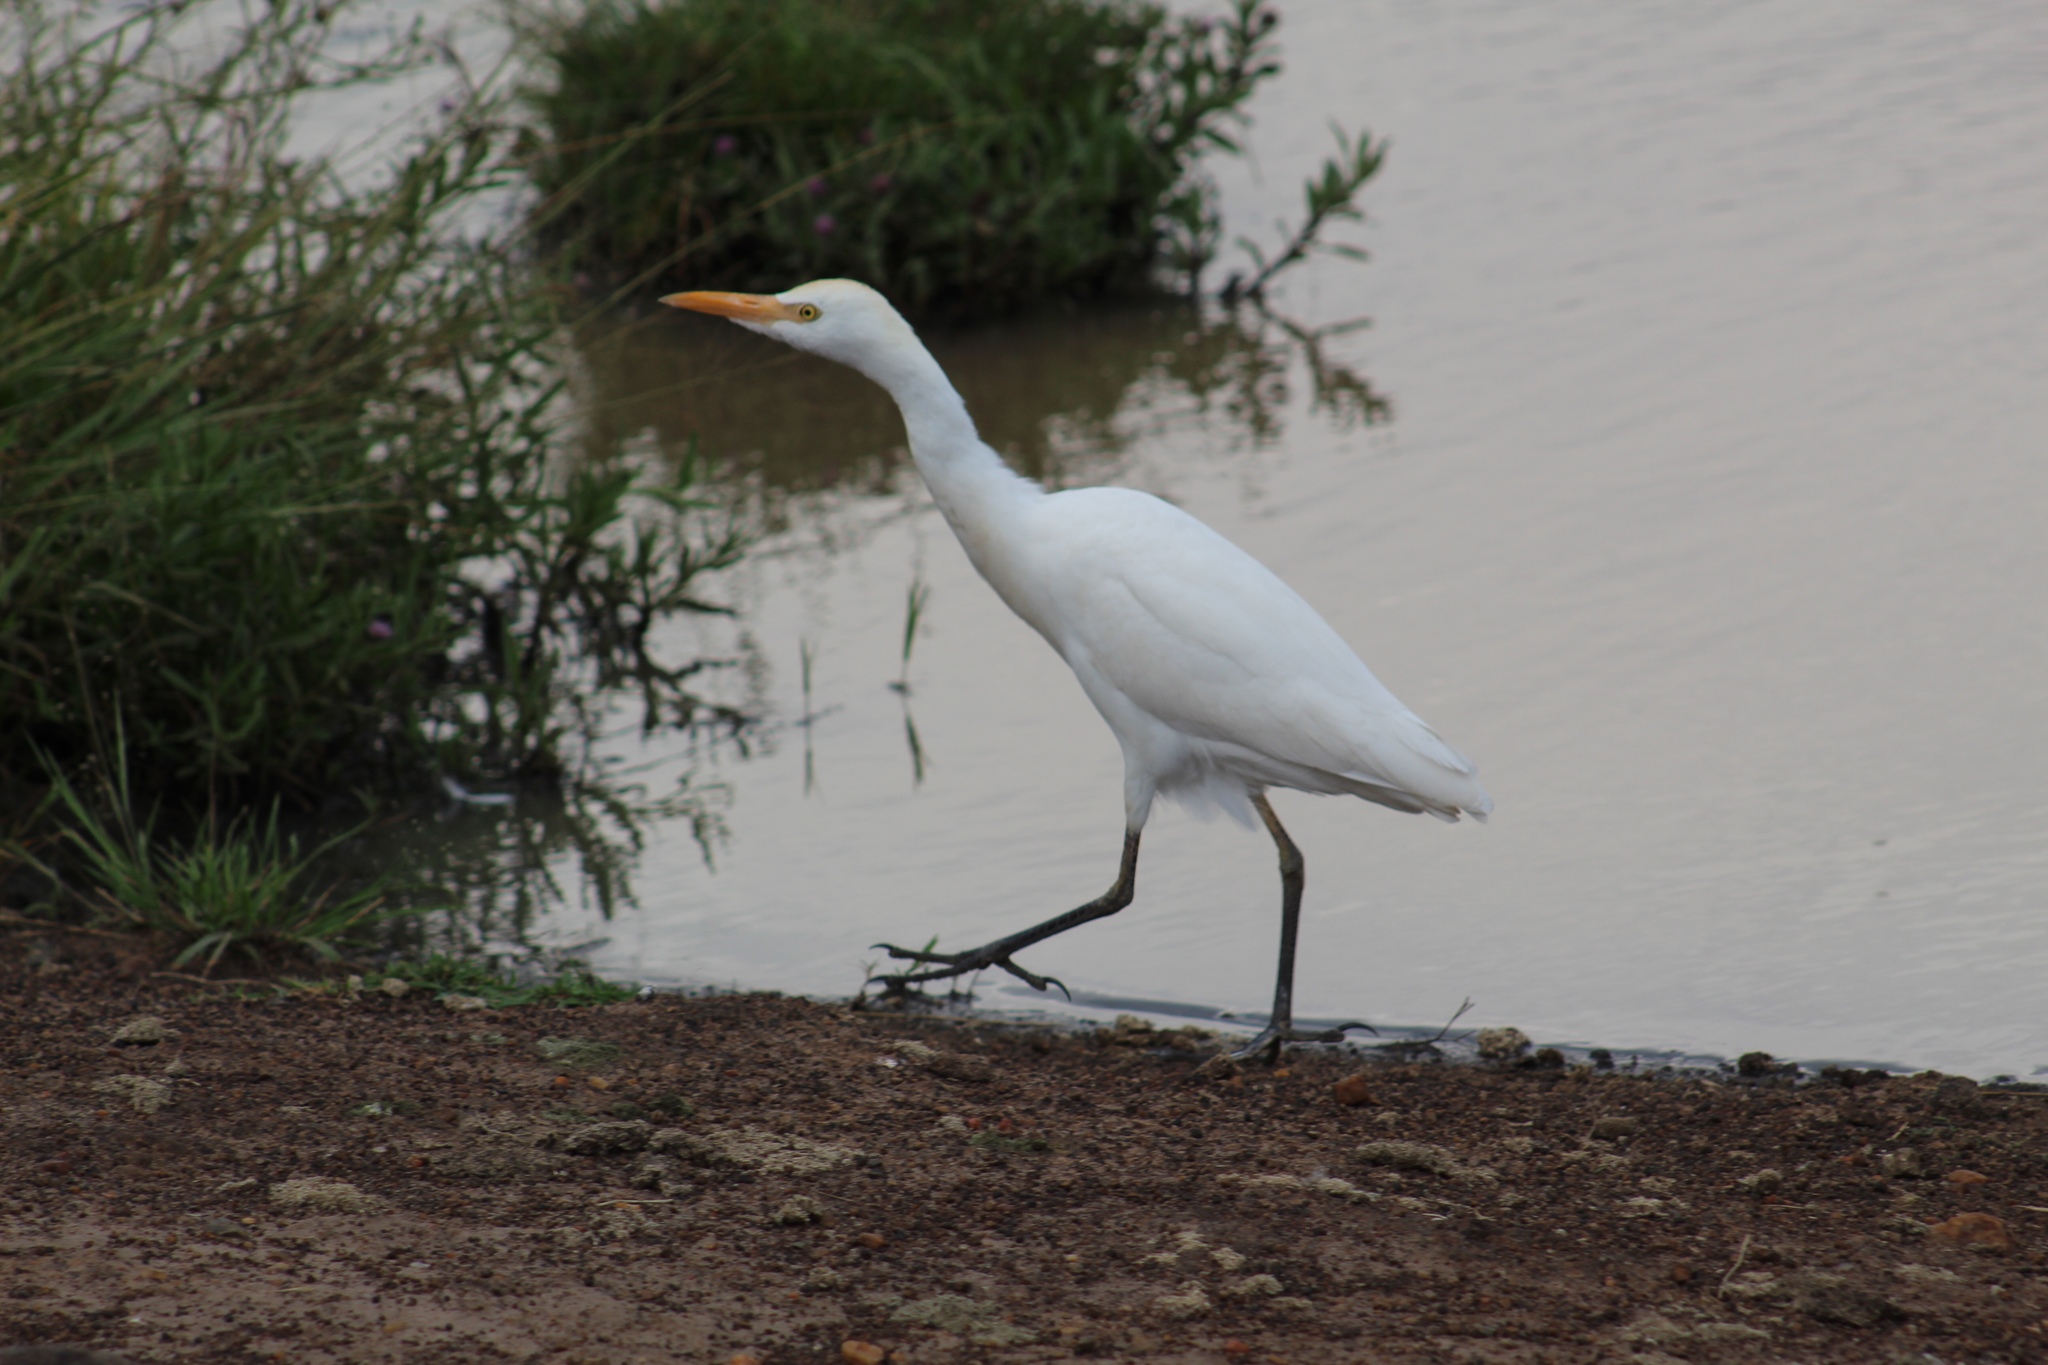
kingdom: Animalia
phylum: Chordata
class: Aves
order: Pelecaniformes
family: Ardeidae
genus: Bubulcus
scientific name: Bubulcus ibis
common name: Cattle egret
